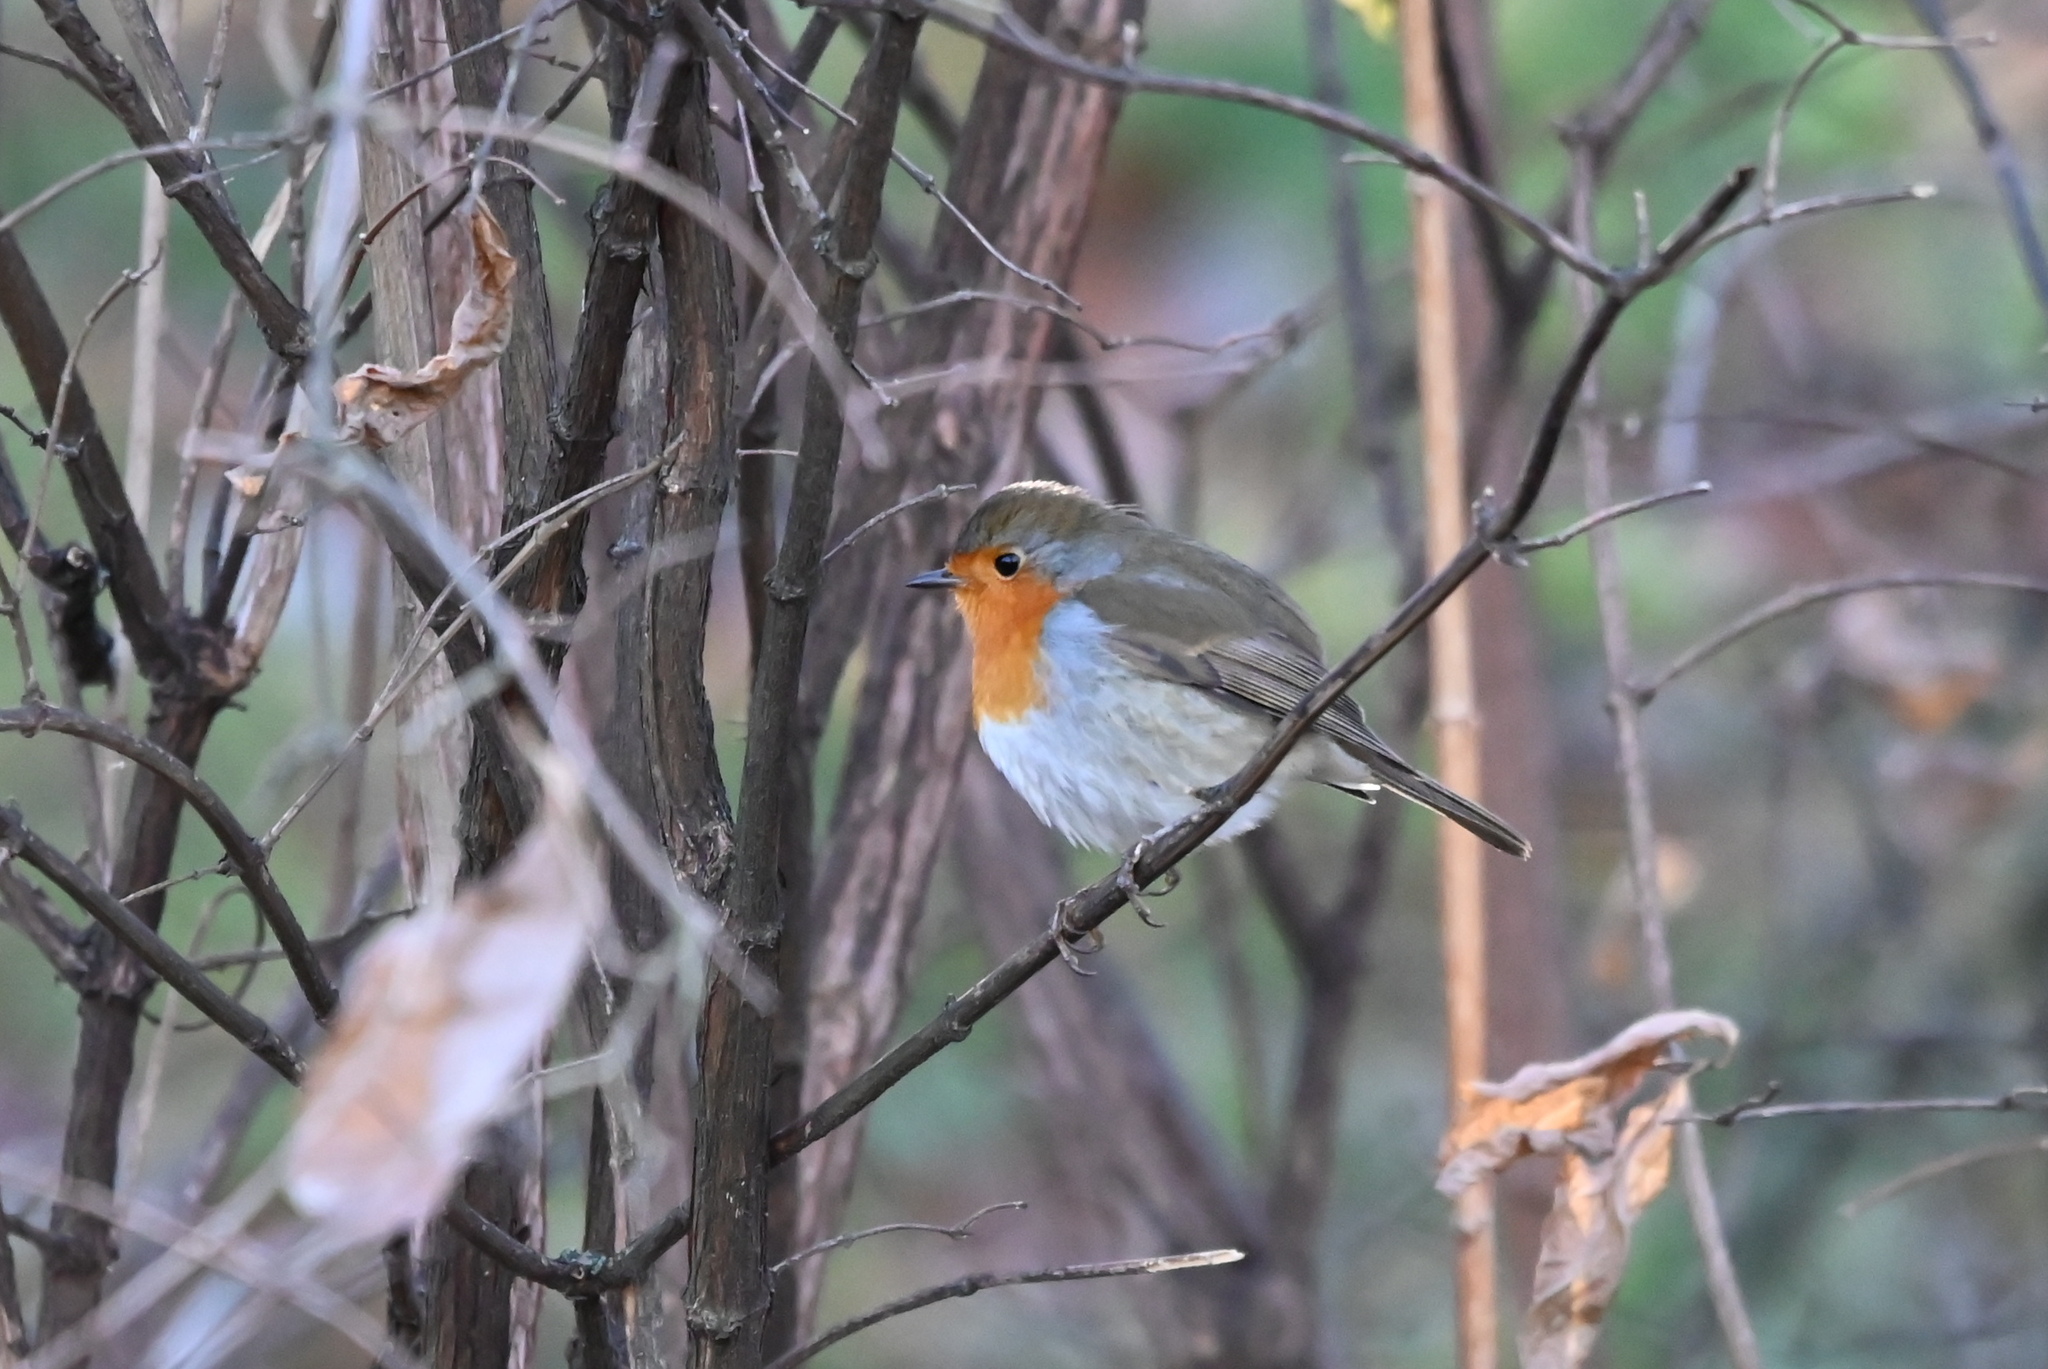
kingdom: Animalia
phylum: Chordata
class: Aves
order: Passeriformes
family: Muscicapidae
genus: Erithacus
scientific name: Erithacus rubecula
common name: European robin
